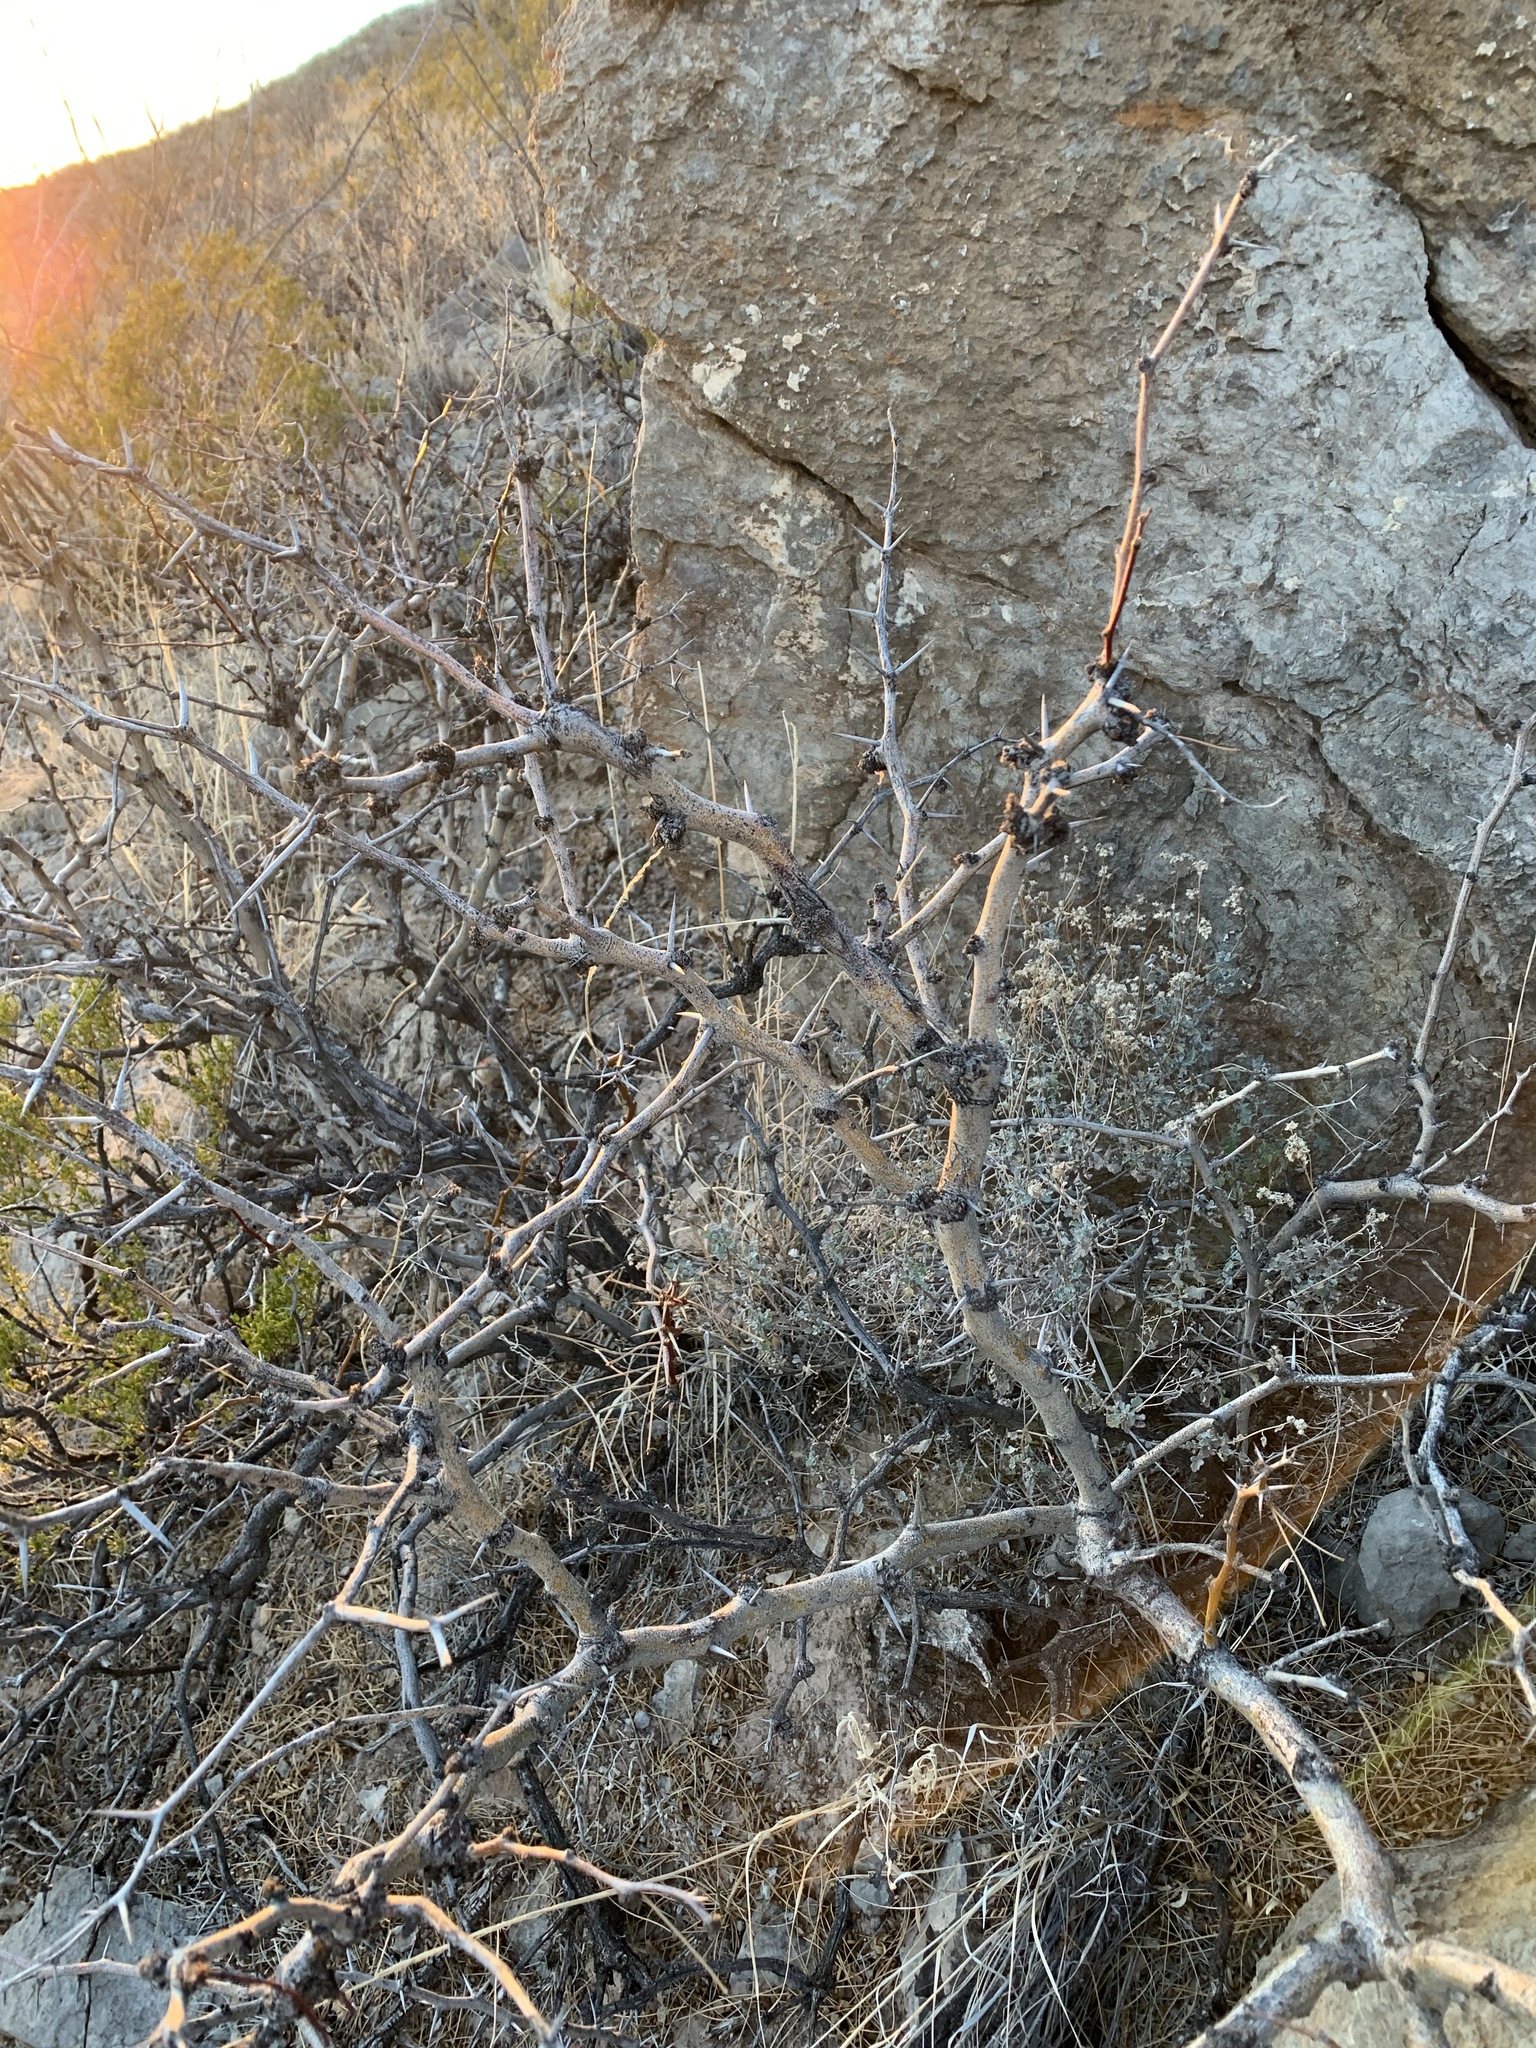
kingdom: Plantae
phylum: Tracheophyta
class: Magnoliopsida
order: Fabales
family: Fabaceae
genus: Prosopis
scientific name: Prosopis glandulosa
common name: Honey mesquite
